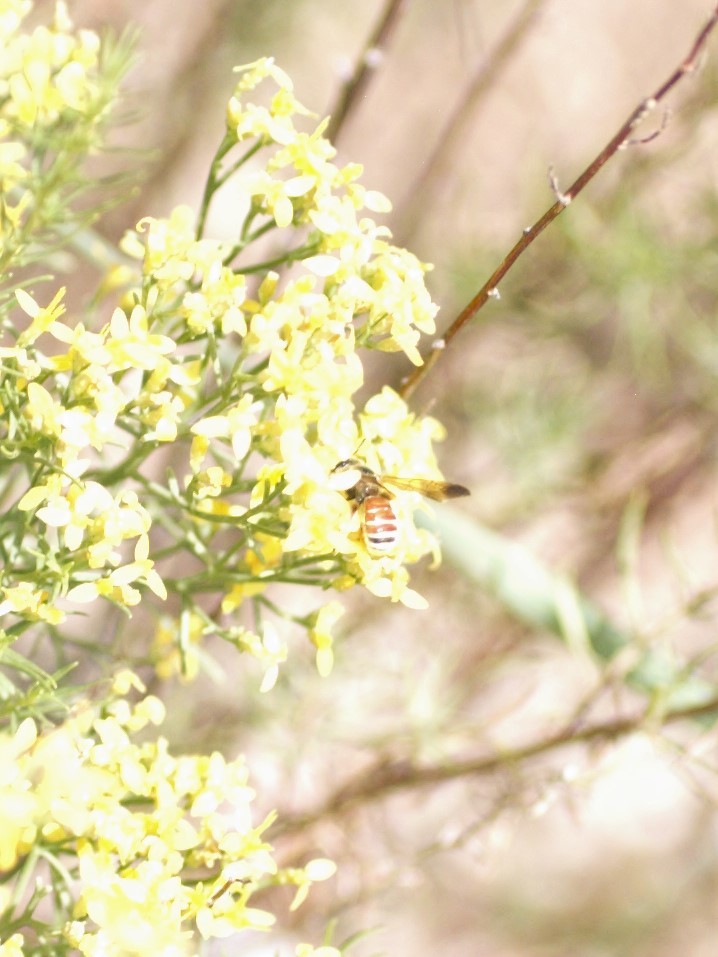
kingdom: Animalia
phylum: Arthropoda
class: Insecta
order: Hymenoptera
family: Halictidae
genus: Dieunomia
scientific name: Dieunomia nevadensis
